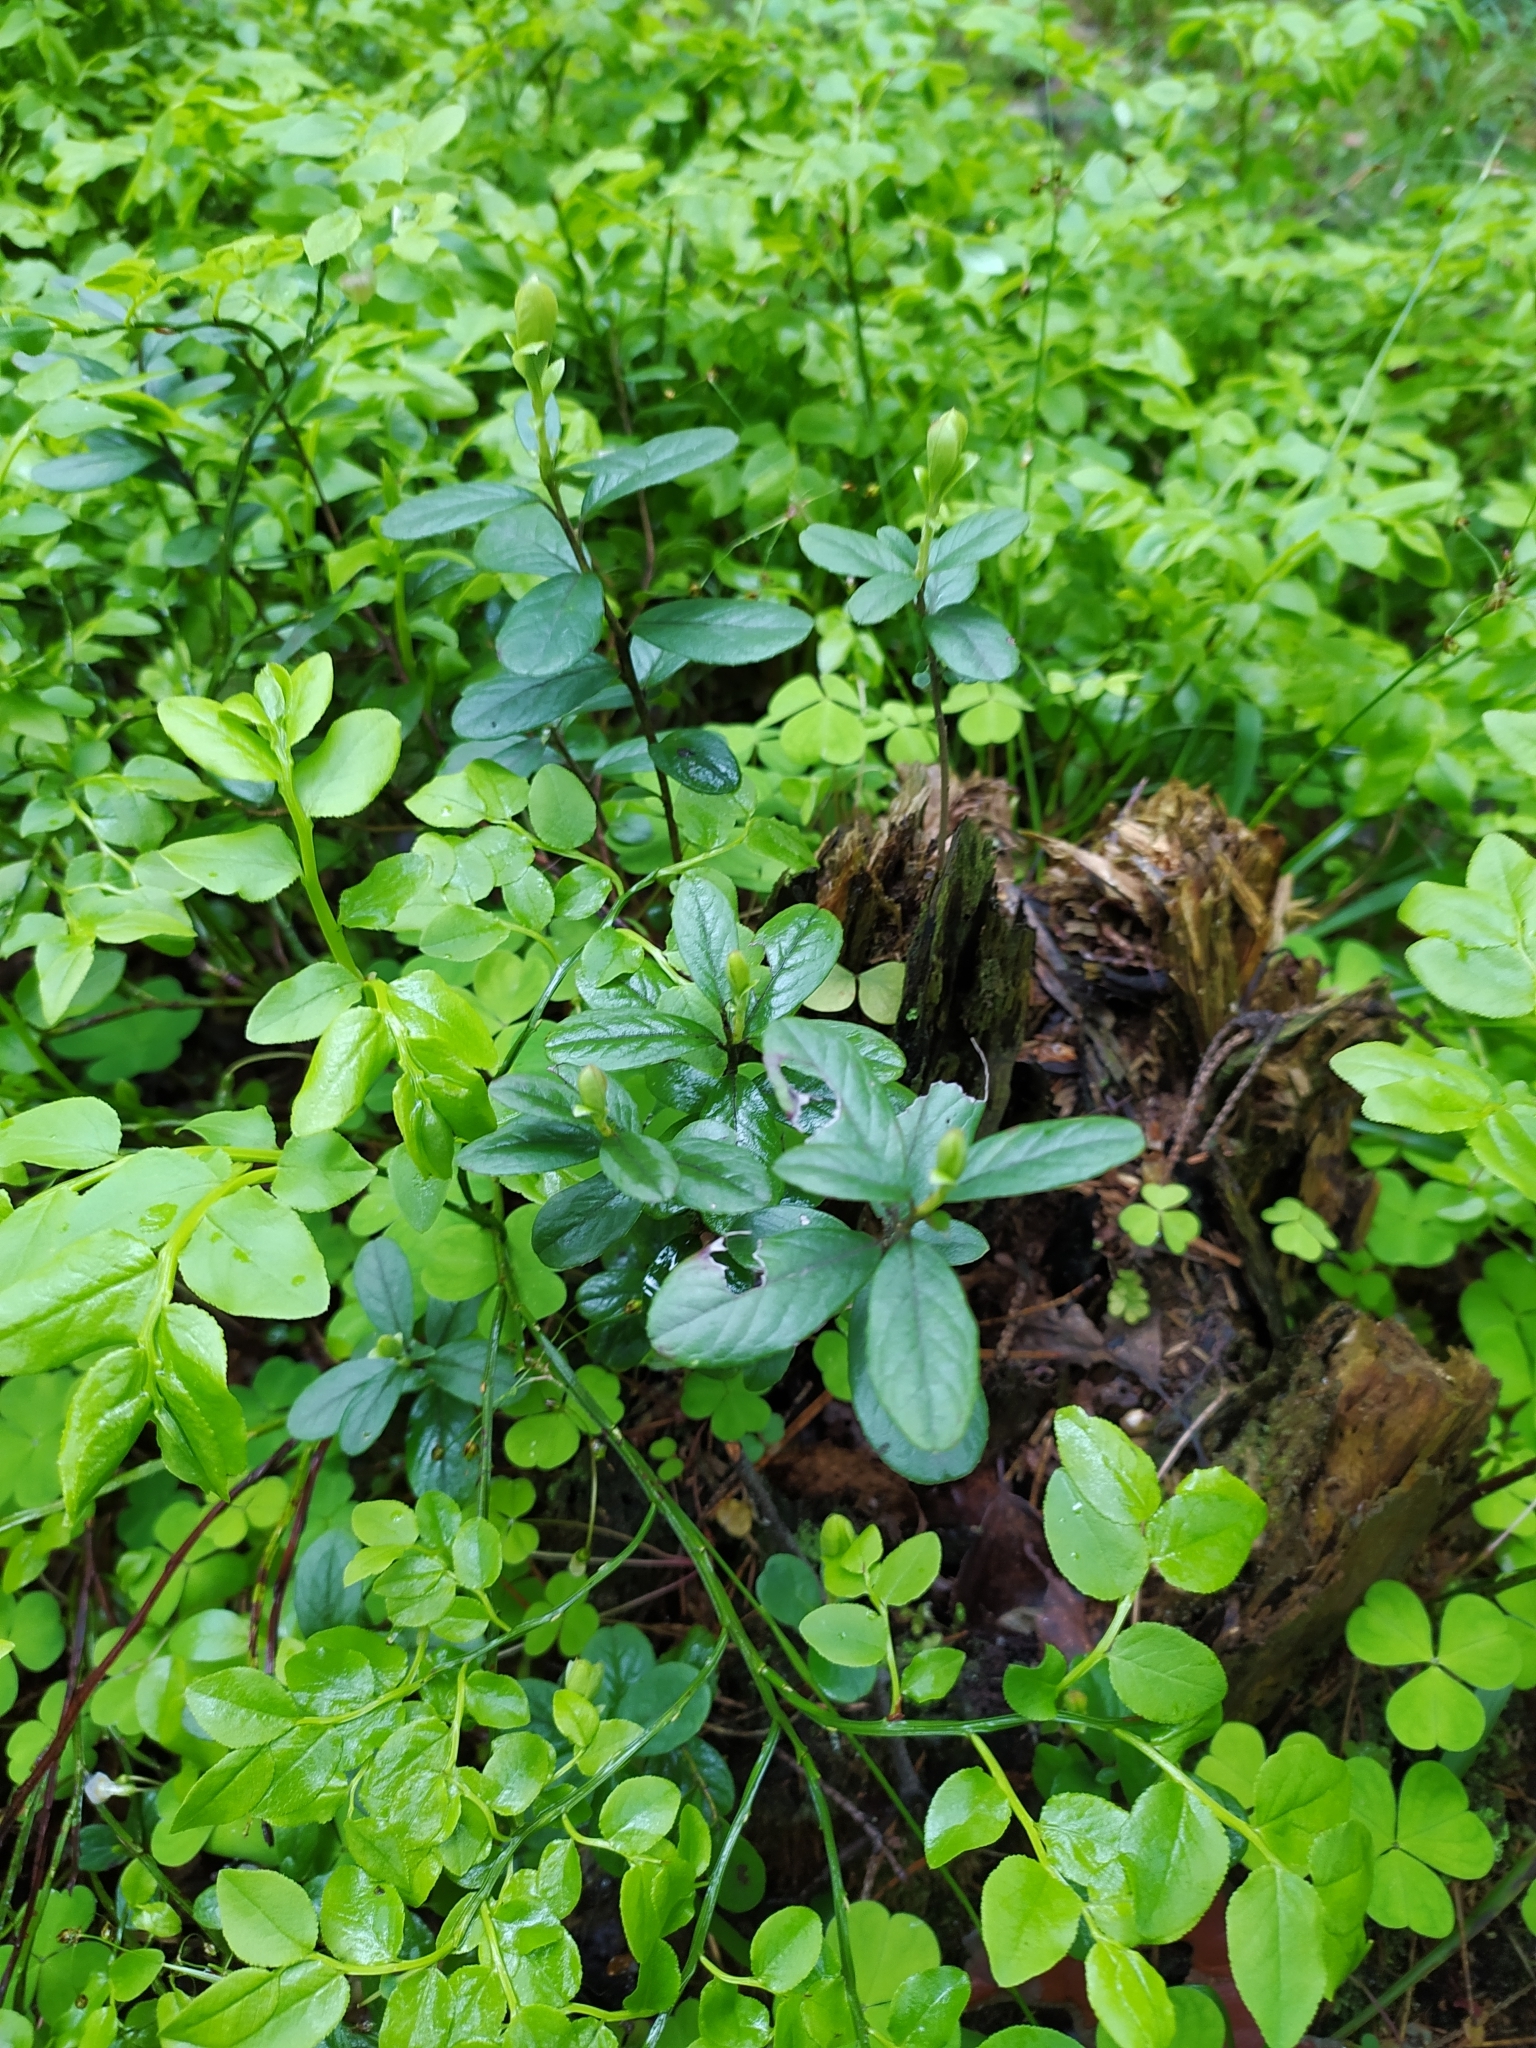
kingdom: Plantae
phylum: Tracheophyta
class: Magnoliopsida
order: Ericales
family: Ericaceae
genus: Vaccinium
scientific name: Vaccinium vitis-idaea
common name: Cowberry
